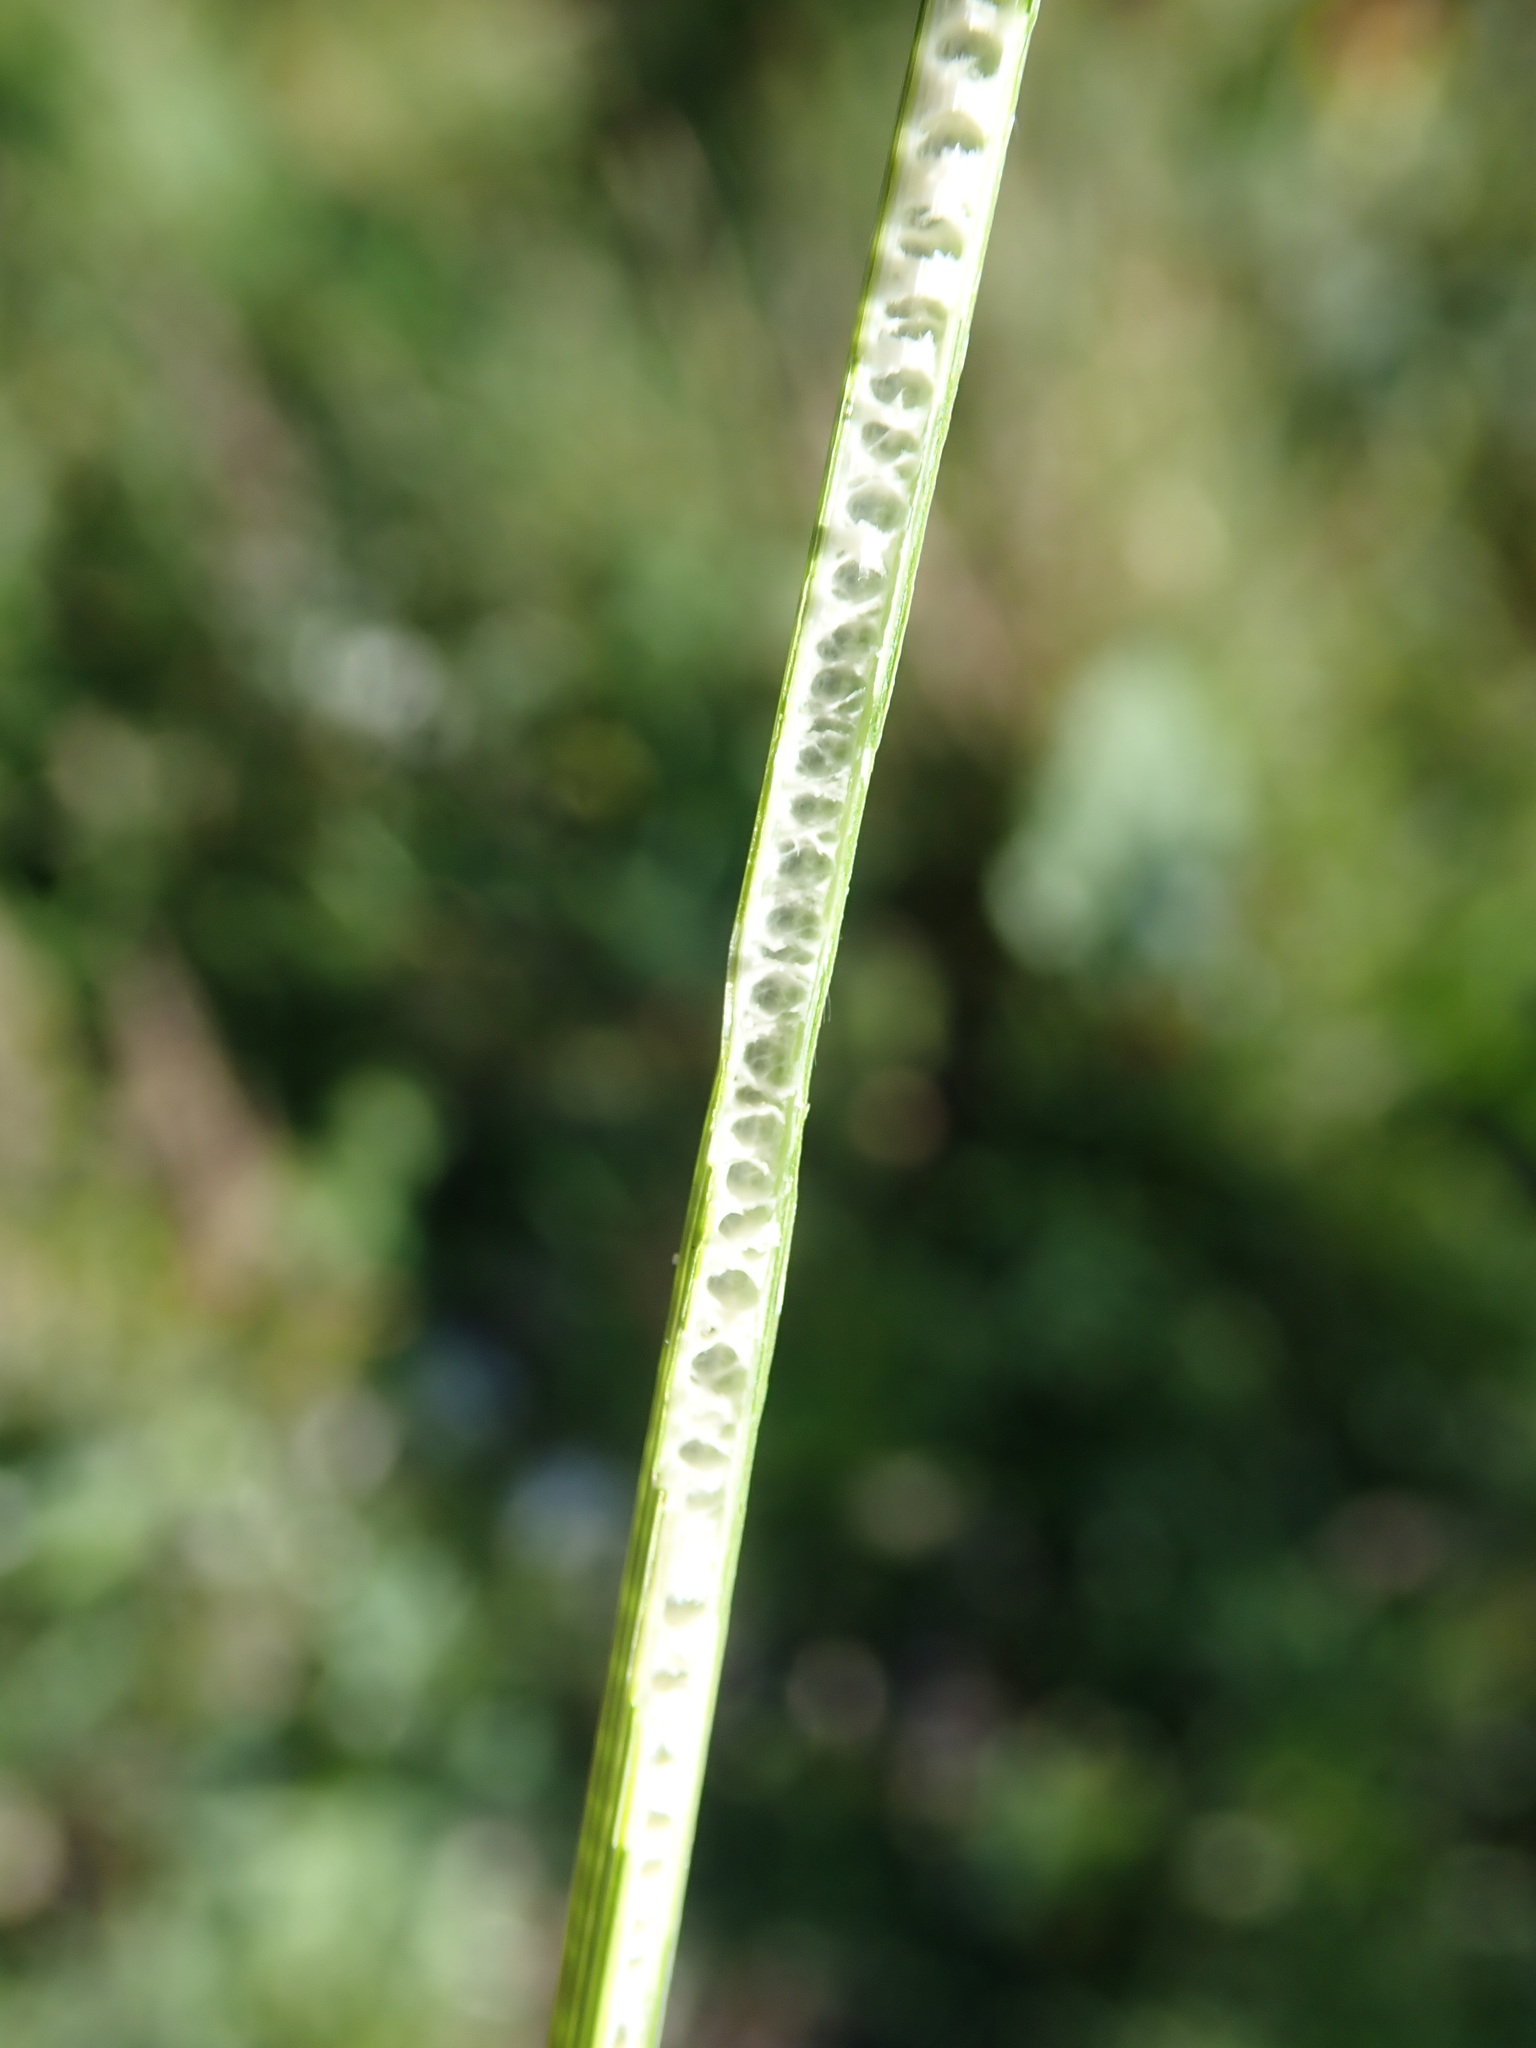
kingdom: Plantae
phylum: Tracheophyta
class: Liliopsida
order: Poales
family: Juncaceae
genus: Juncus
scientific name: Juncus inflexus
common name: Hard rush
